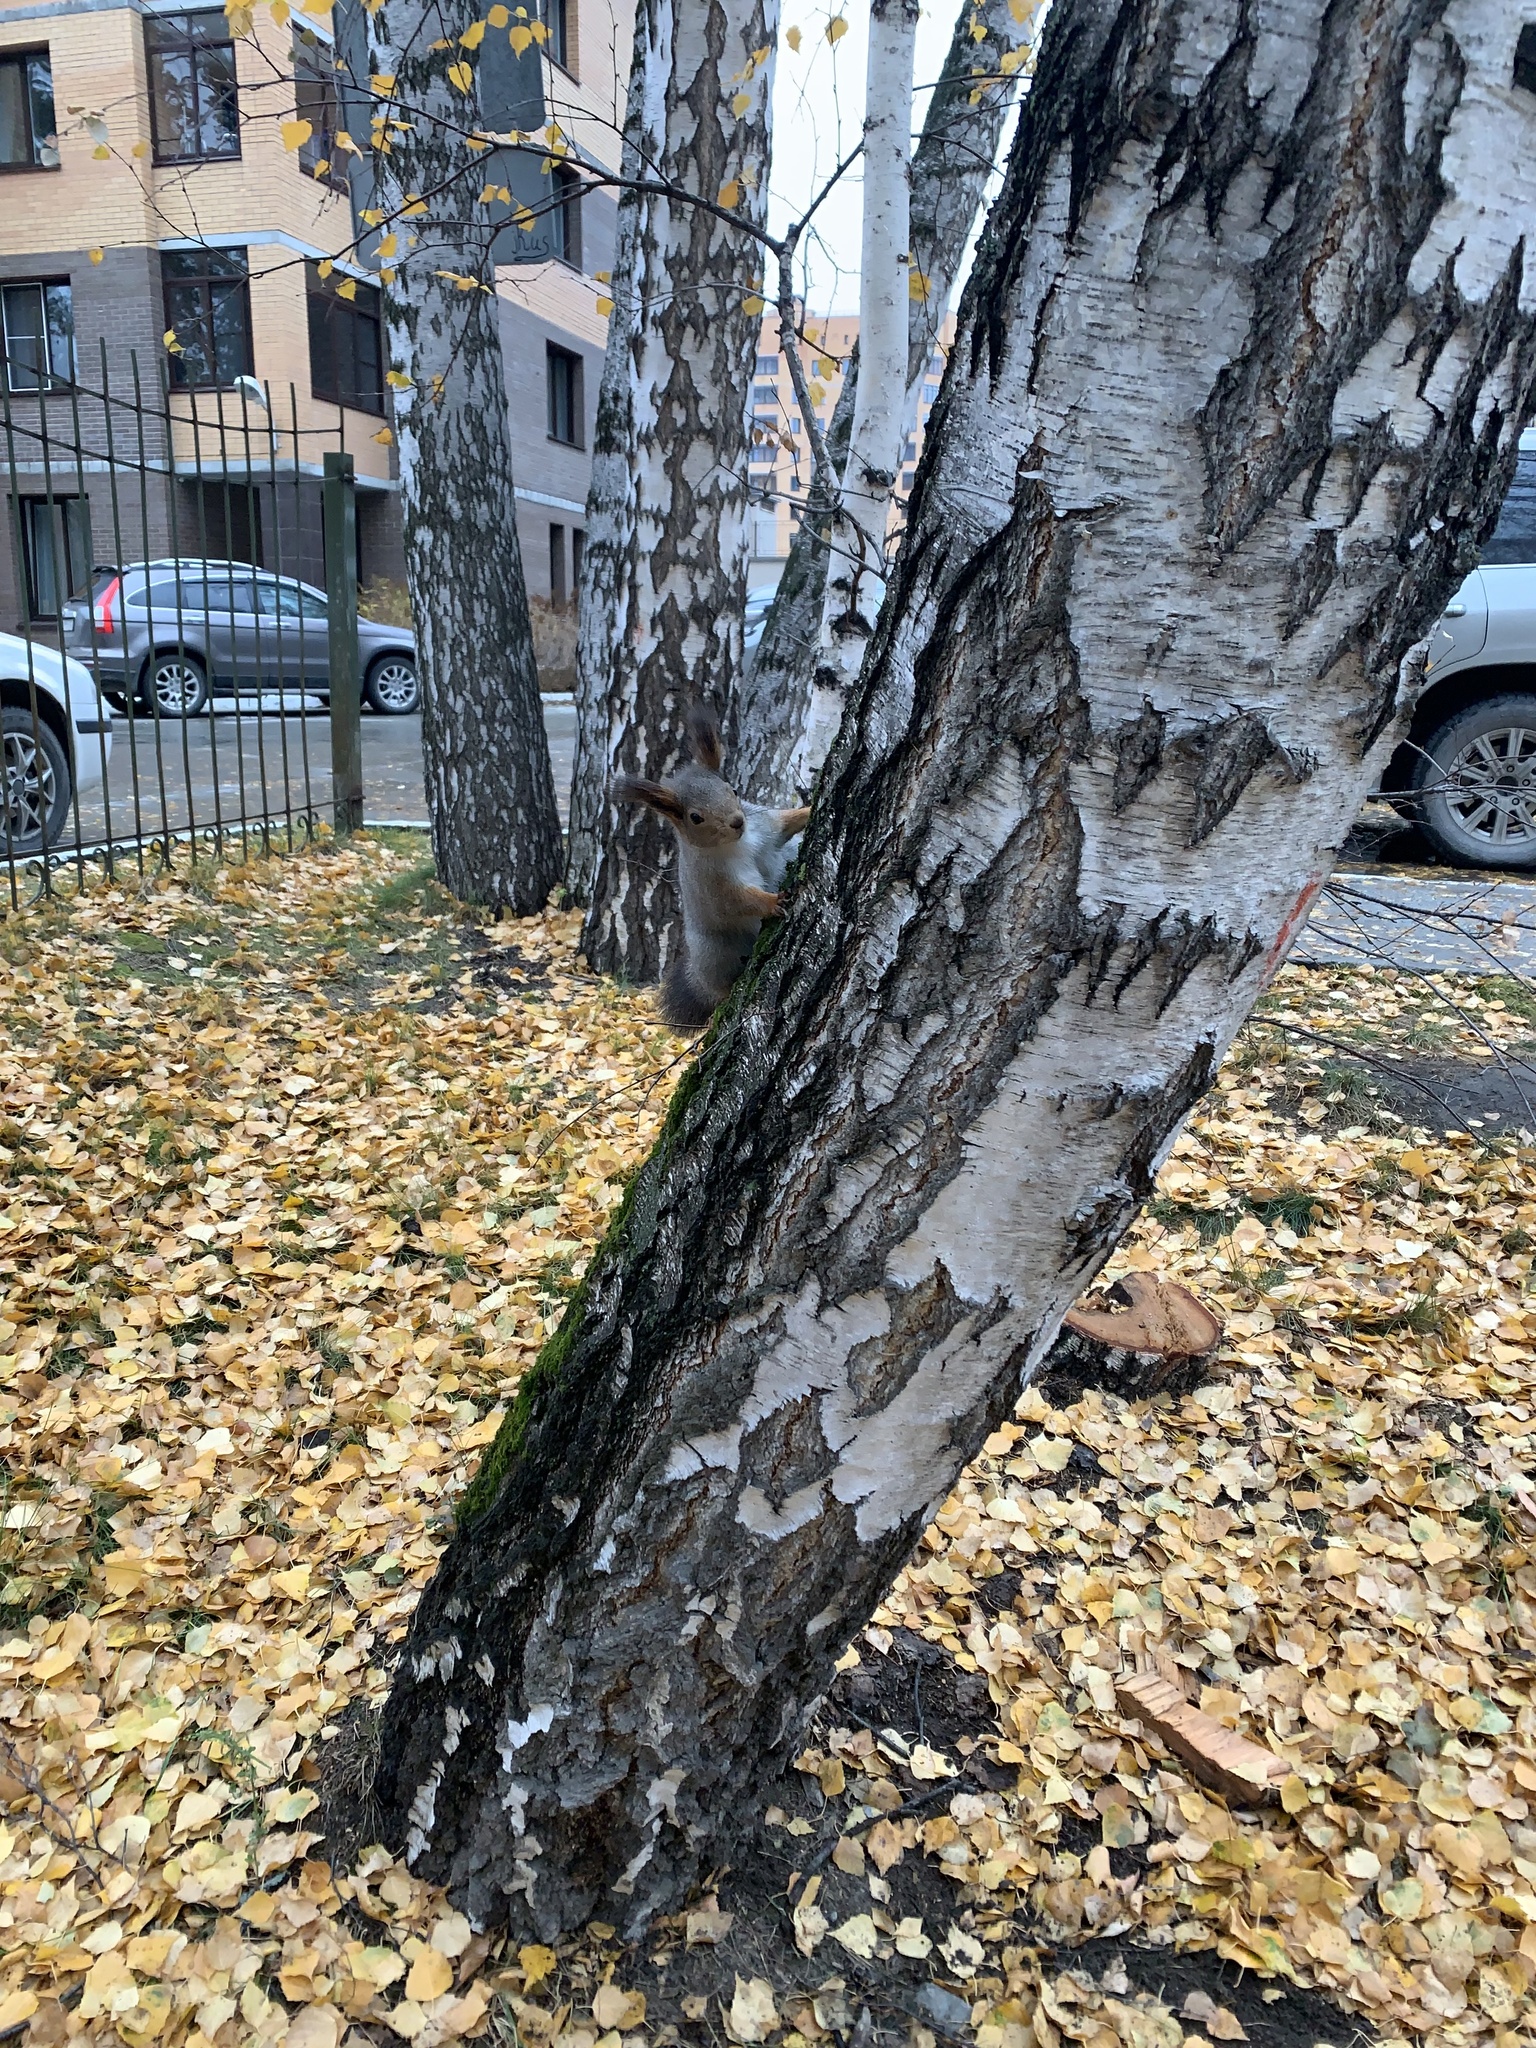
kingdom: Animalia
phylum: Chordata
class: Mammalia
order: Rodentia
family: Sciuridae
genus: Sciurus
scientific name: Sciurus vulgaris
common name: Eurasian red squirrel
